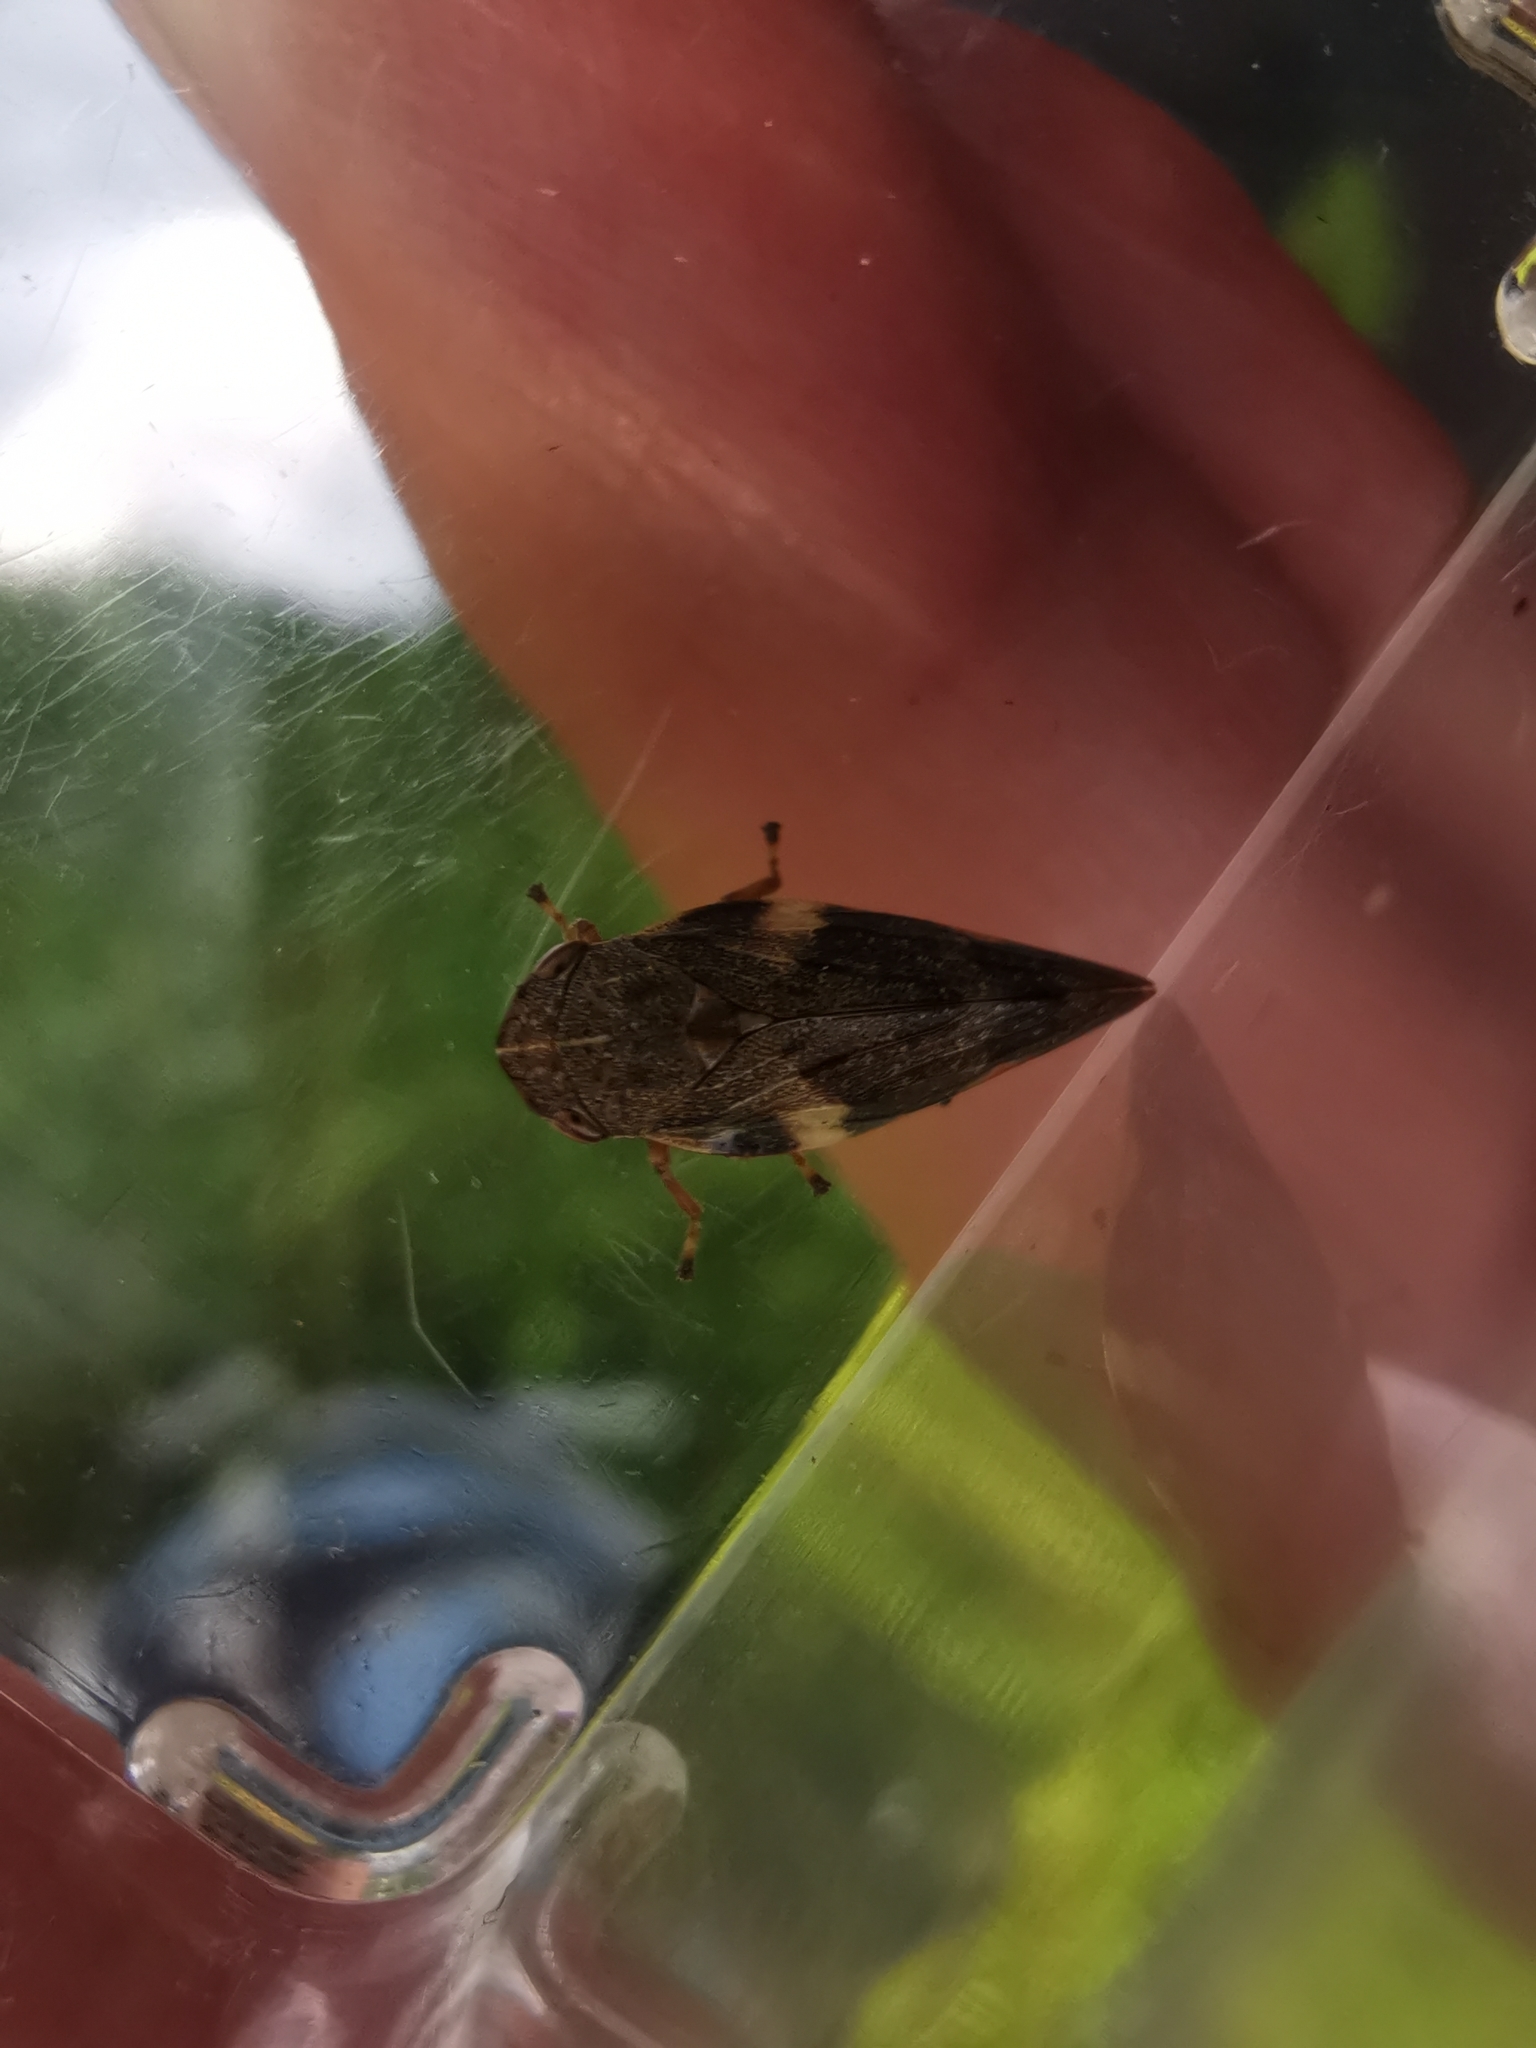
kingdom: Animalia
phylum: Arthropoda
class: Insecta
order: Hemiptera
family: Aphrophoridae
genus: Aphrophora
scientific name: Aphrophora alni
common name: European alder spittlebug
